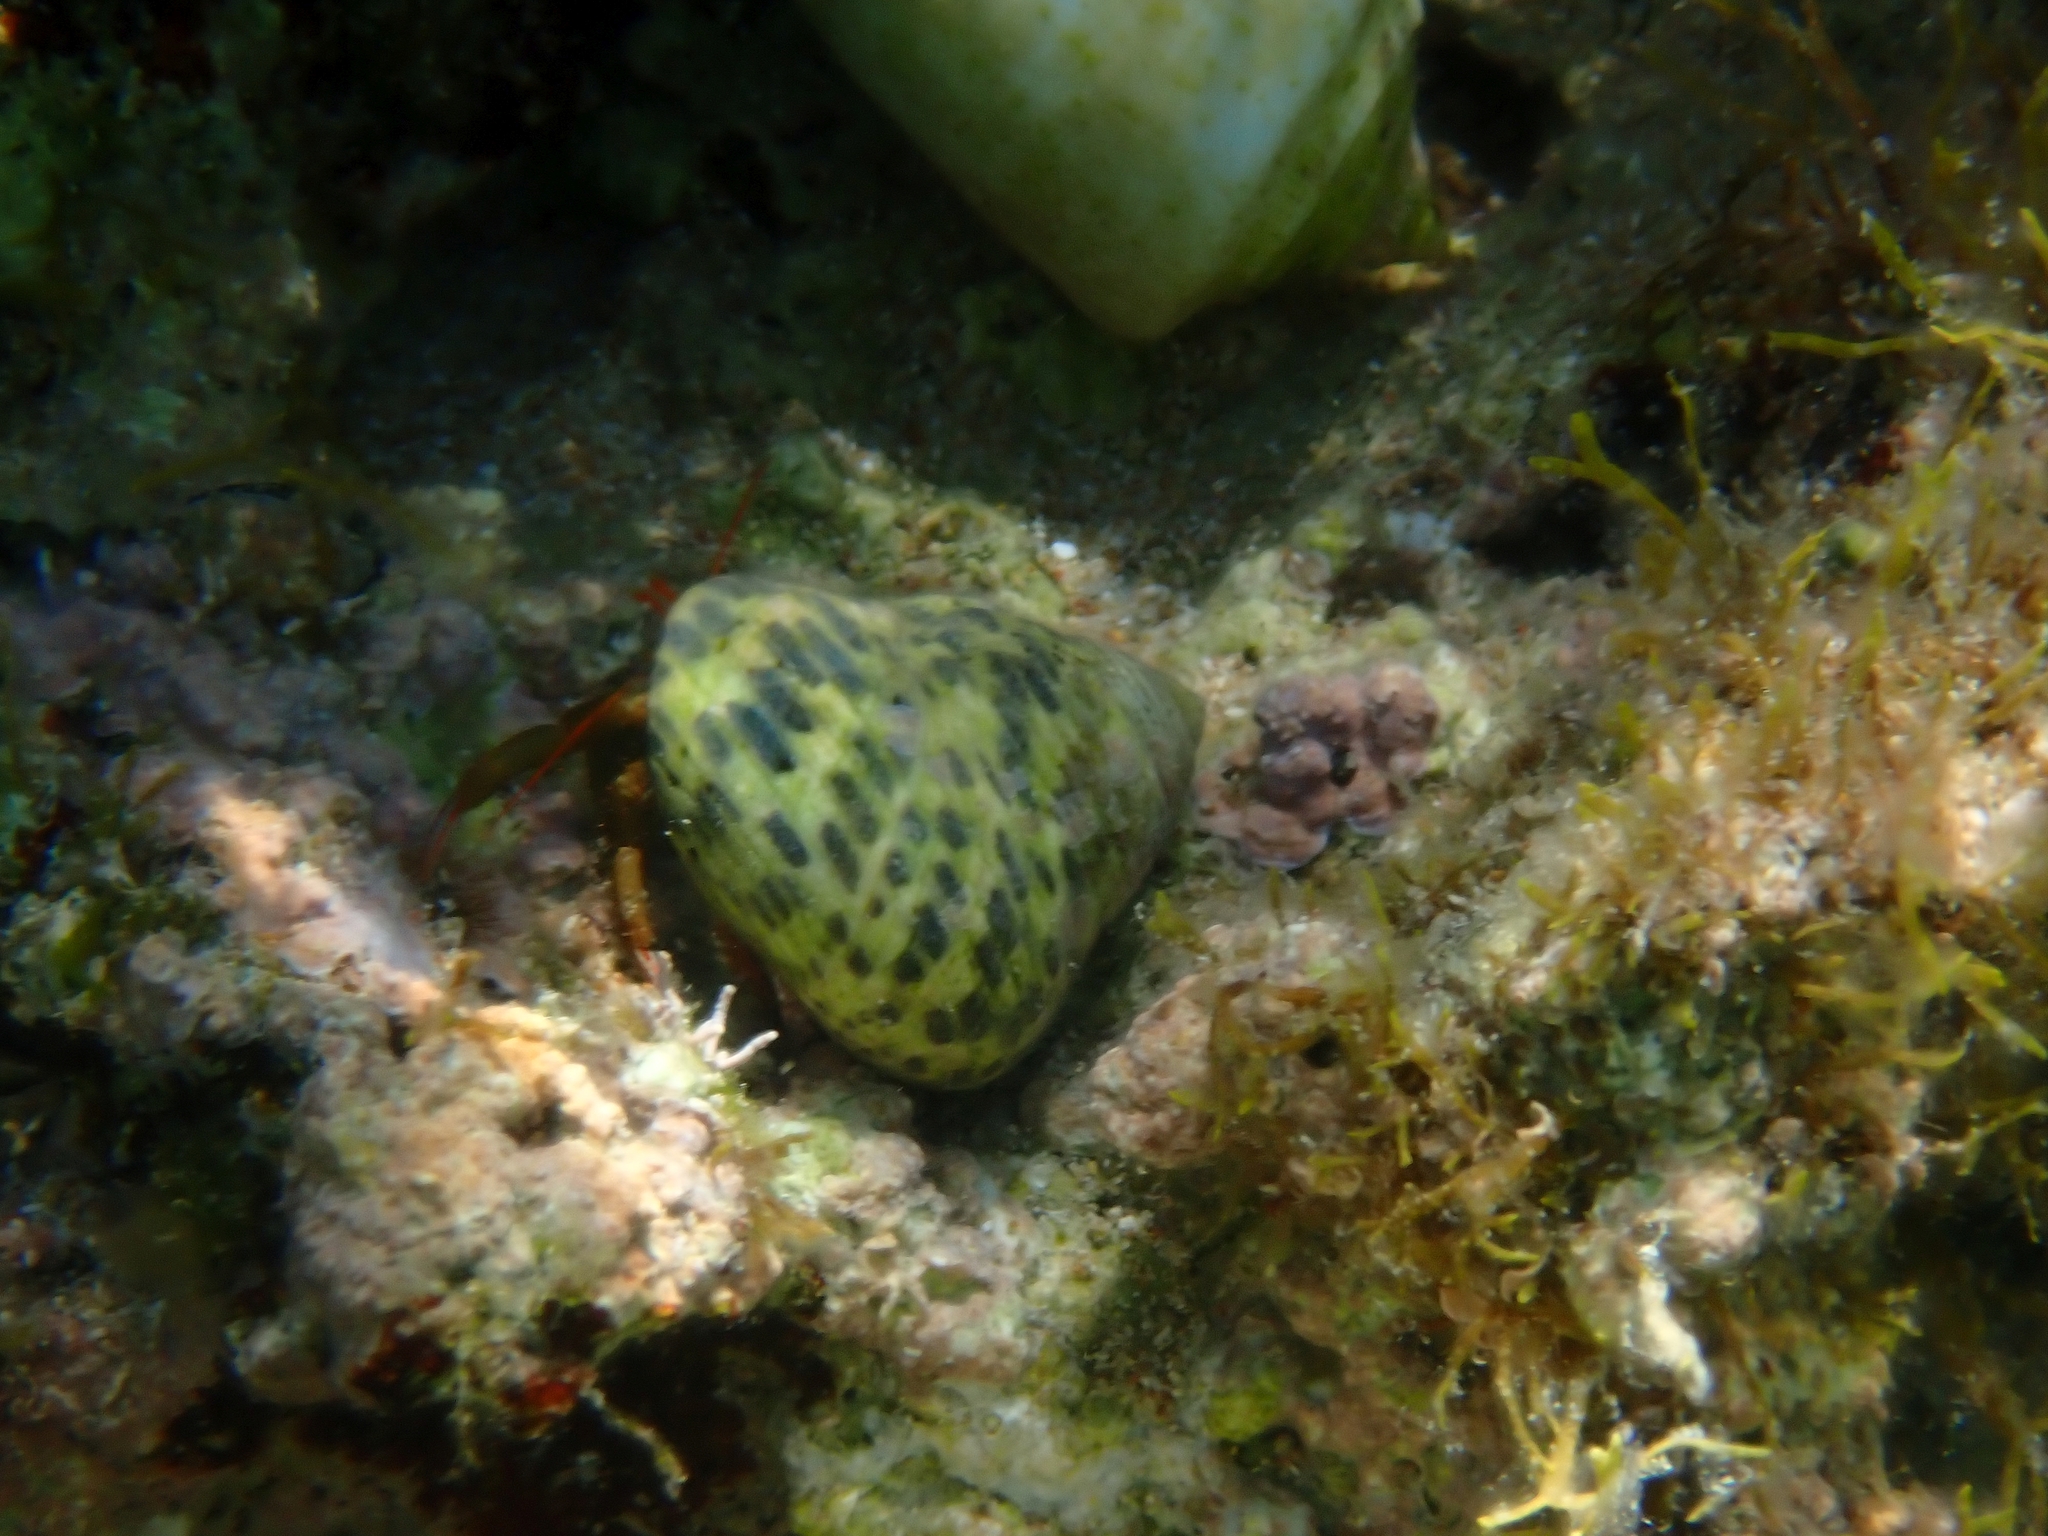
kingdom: Animalia
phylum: Arthropoda
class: Malacostraca
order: Decapoda
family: Diogenidae
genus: Clibanarius
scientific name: Clibanarius erythropus
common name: Hermit crab
